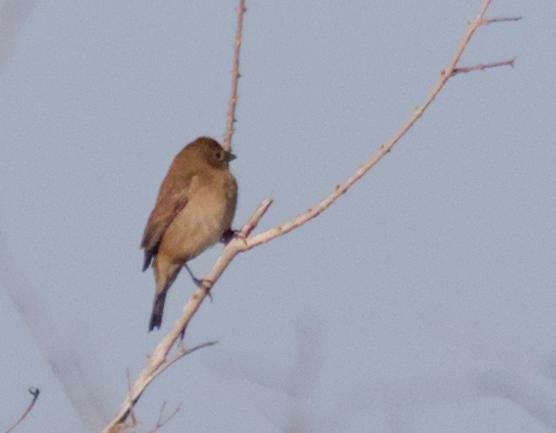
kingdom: Animalia
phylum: Chordata
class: Aves
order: Passeriformes
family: Thraupidae
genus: Volatinia
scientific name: Volatinia jacarina
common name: Blue-black grassquit
